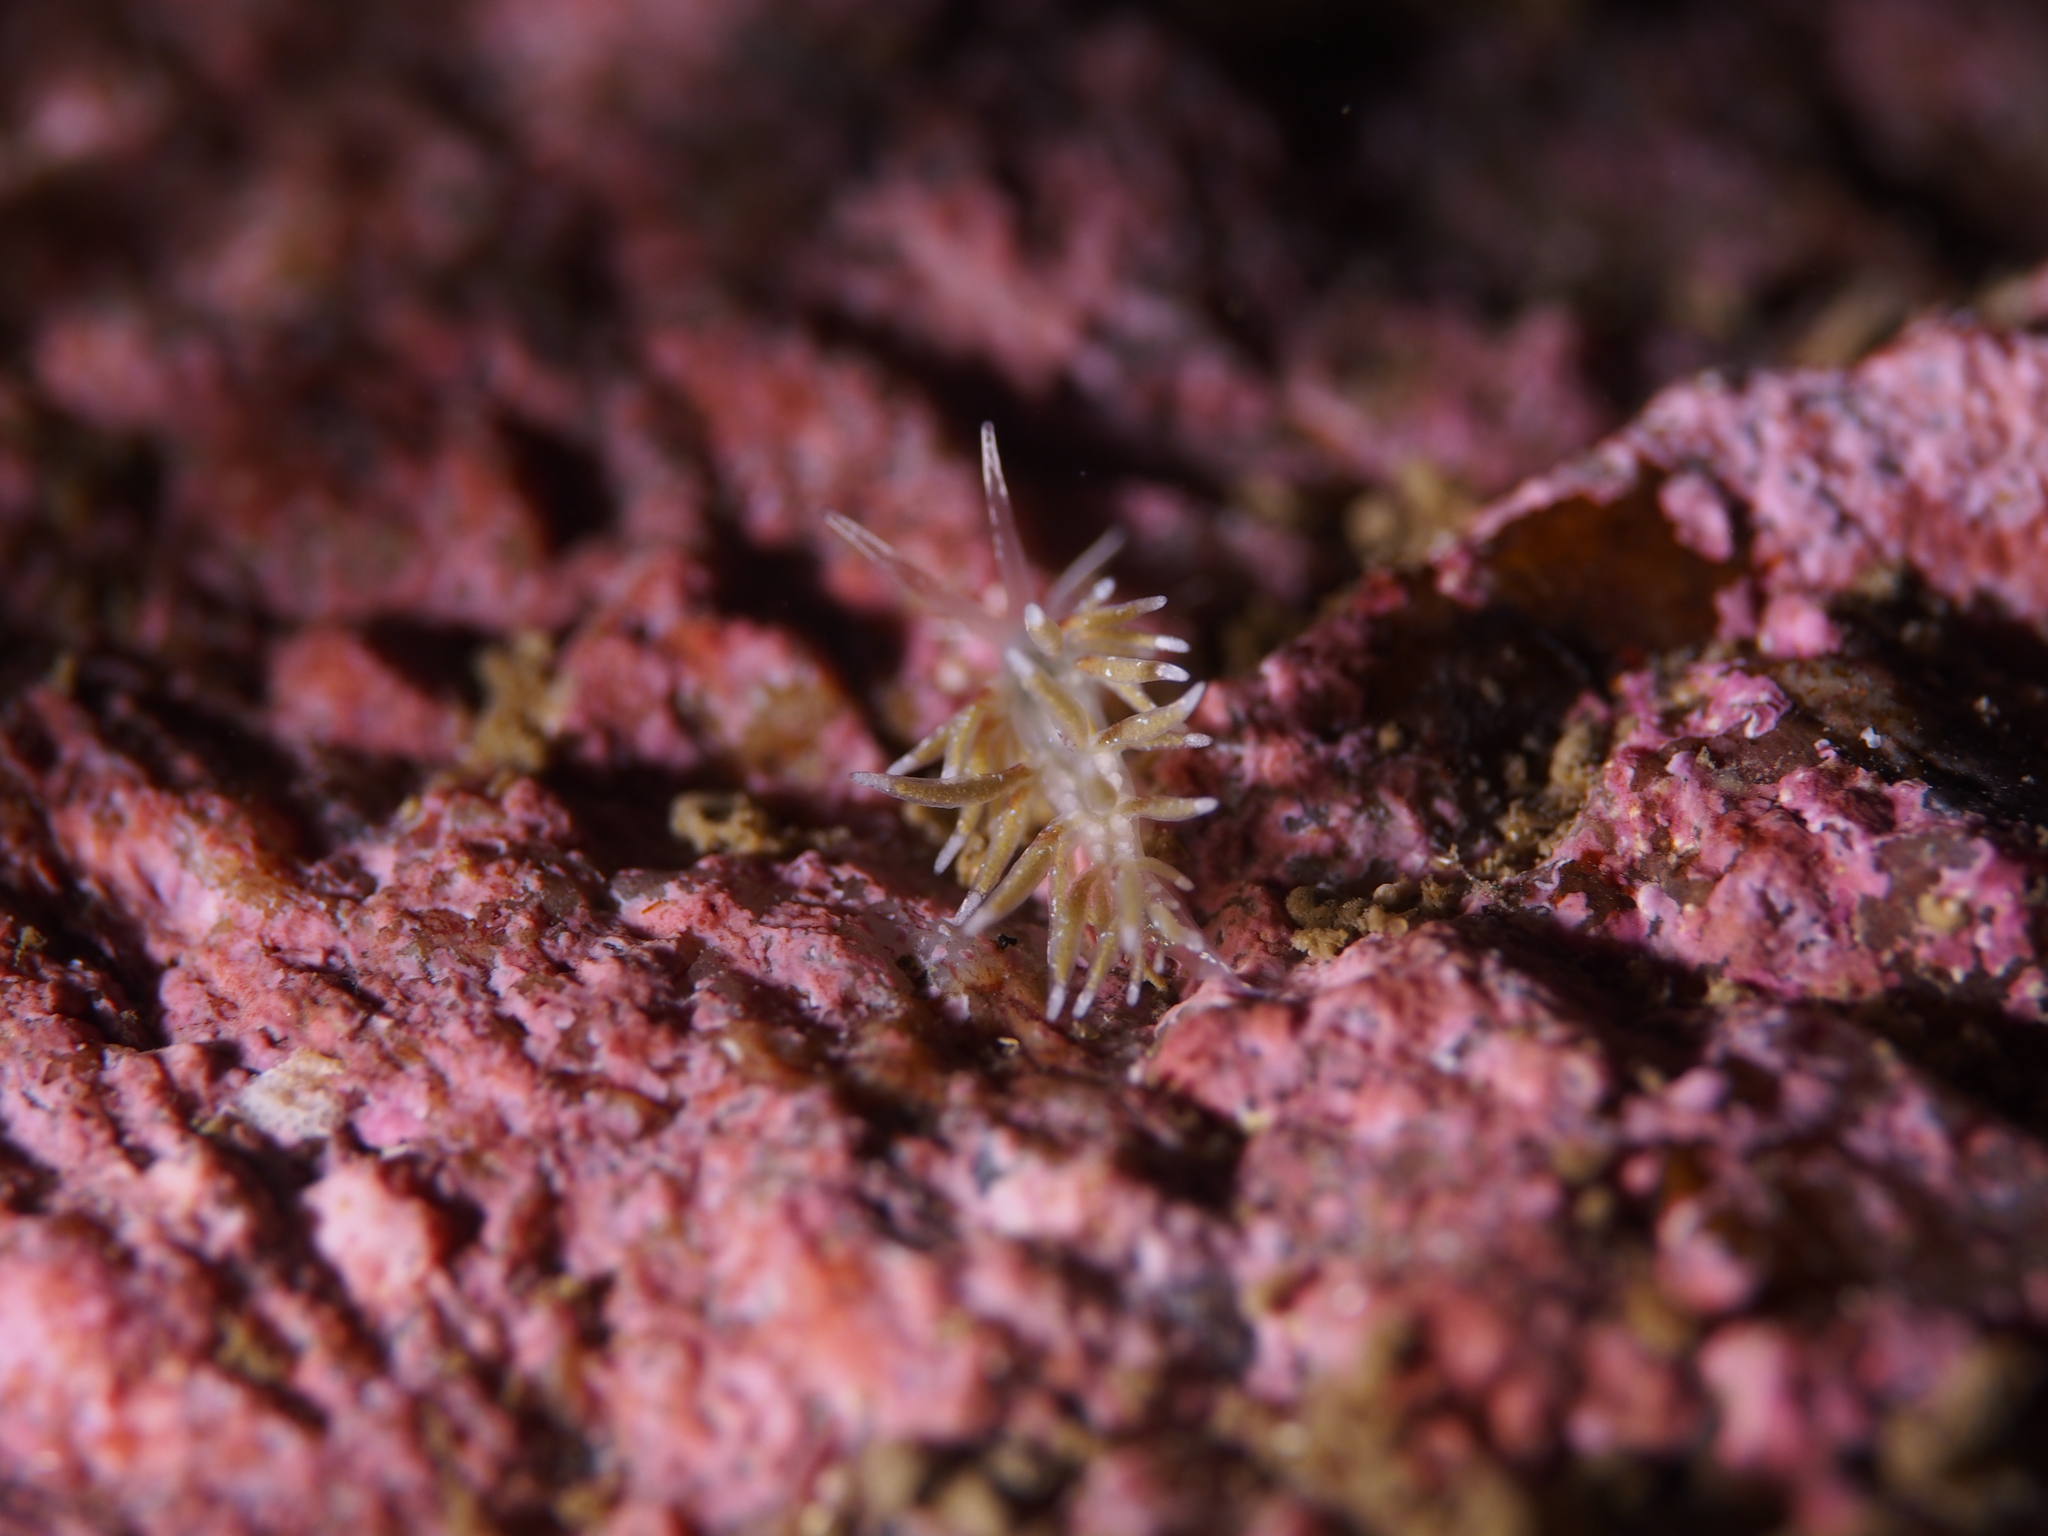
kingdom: Animalia
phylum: Mollusca
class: Gastropoda
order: Nudibranchia
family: Trinchesiidae
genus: Rubramoena
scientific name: Rubramoena rubescens
